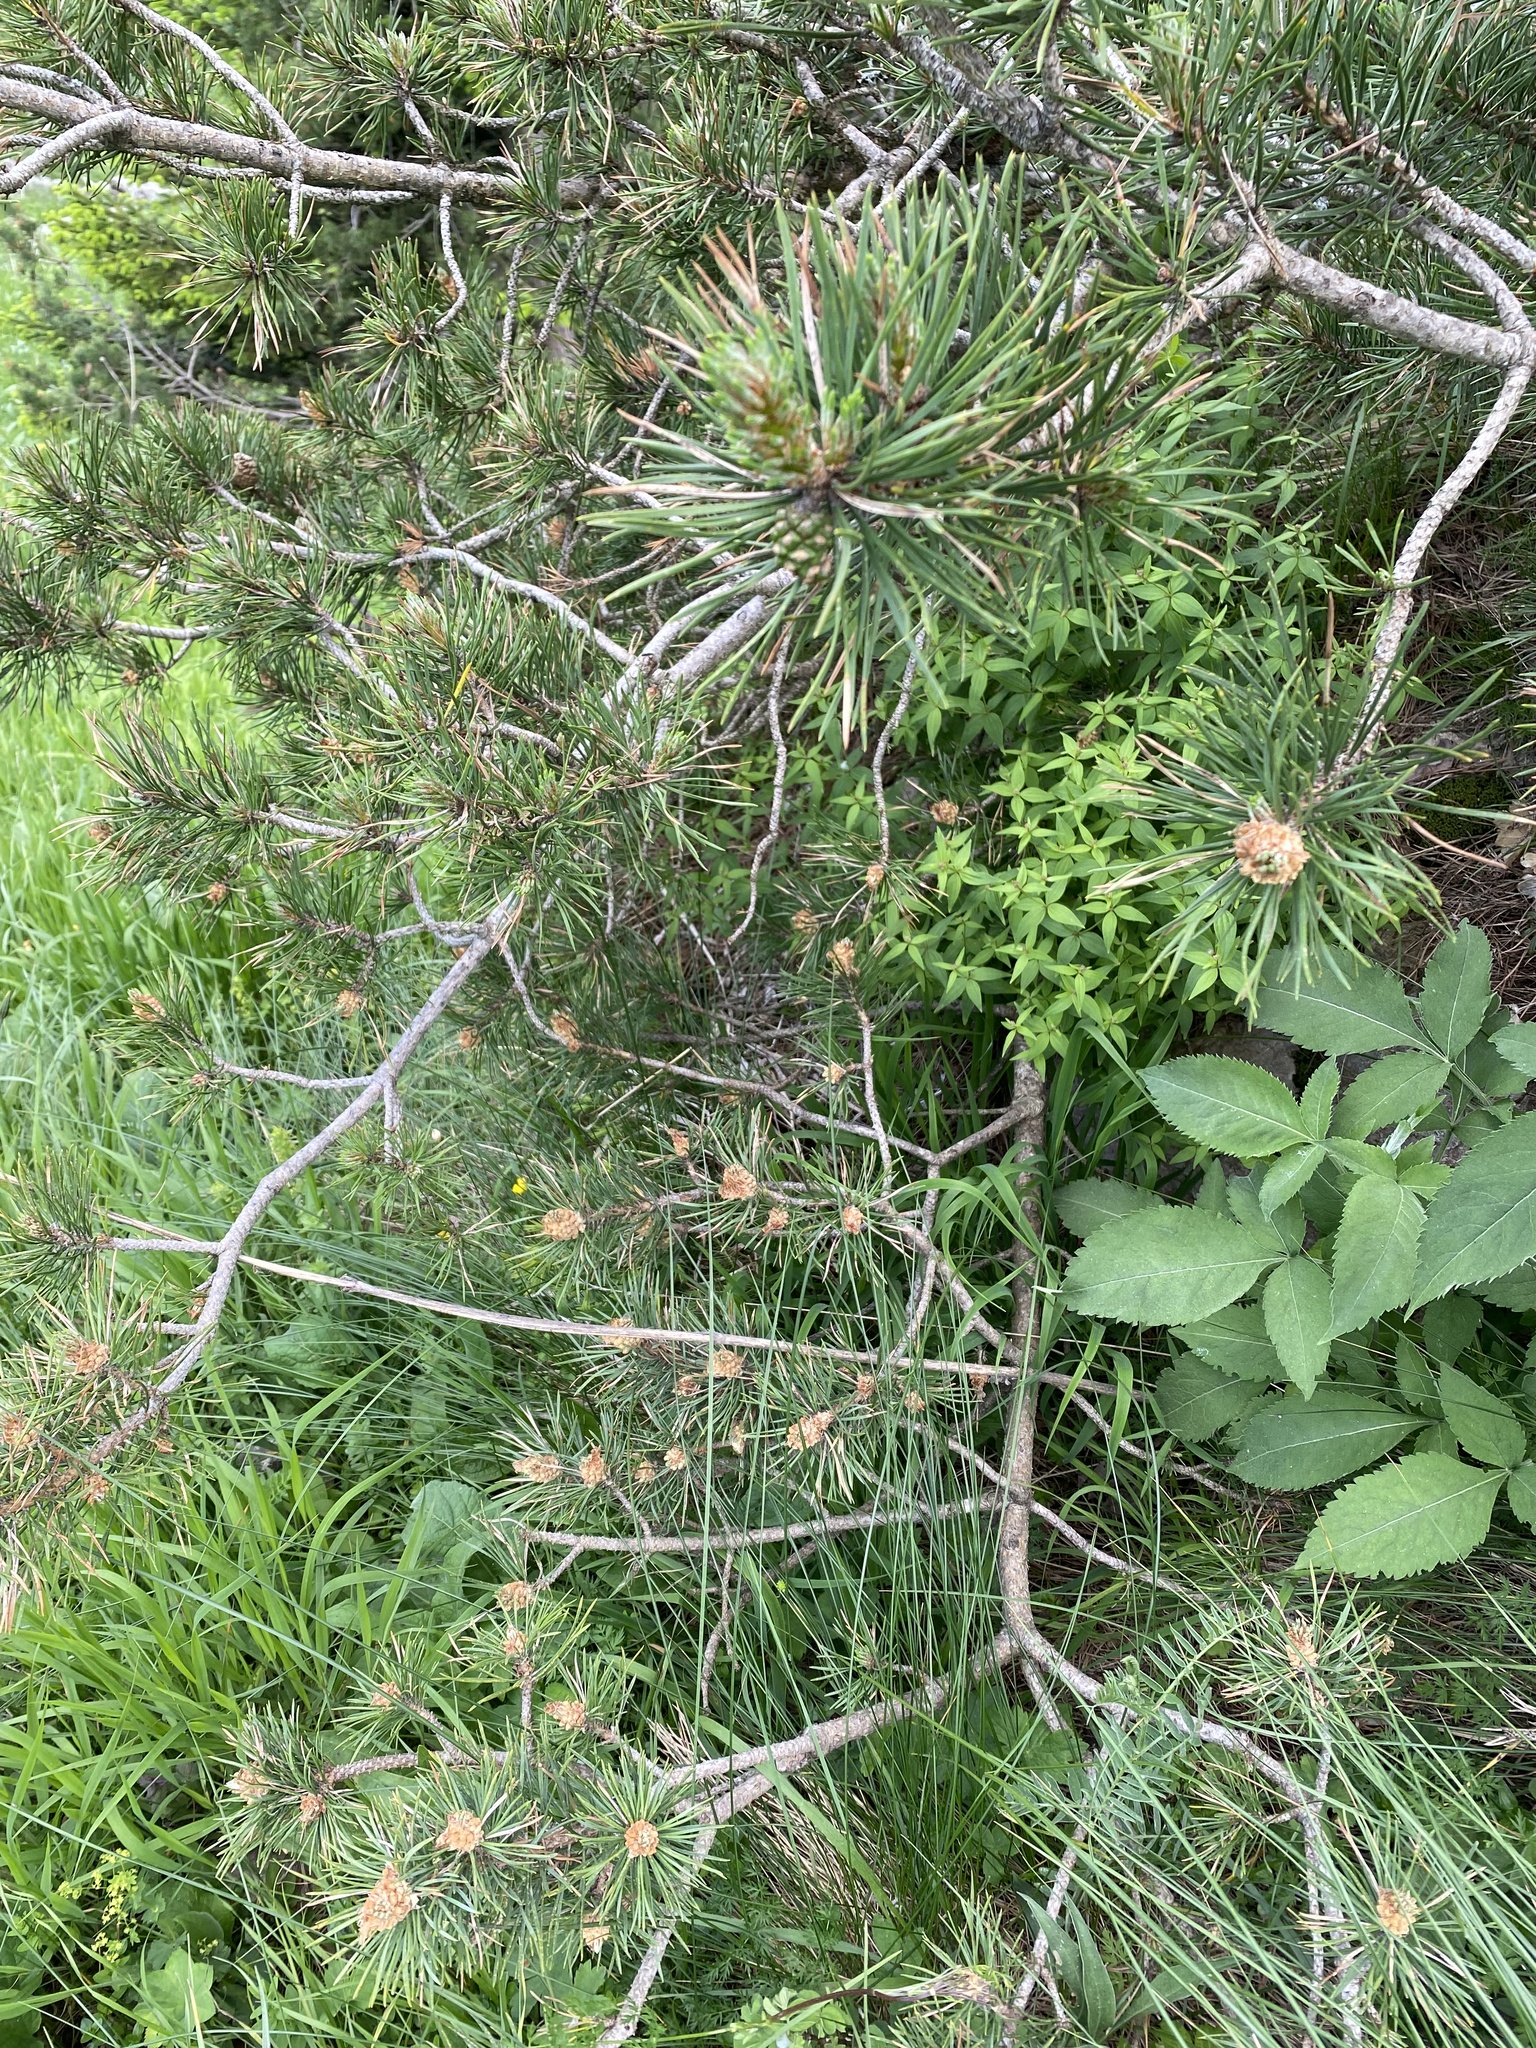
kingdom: Plantae
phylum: Tracheophyta
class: Pinopsida
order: Pinales
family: Pinaceae
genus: Pinus
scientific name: Pinus sylvestris
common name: Scots pine
